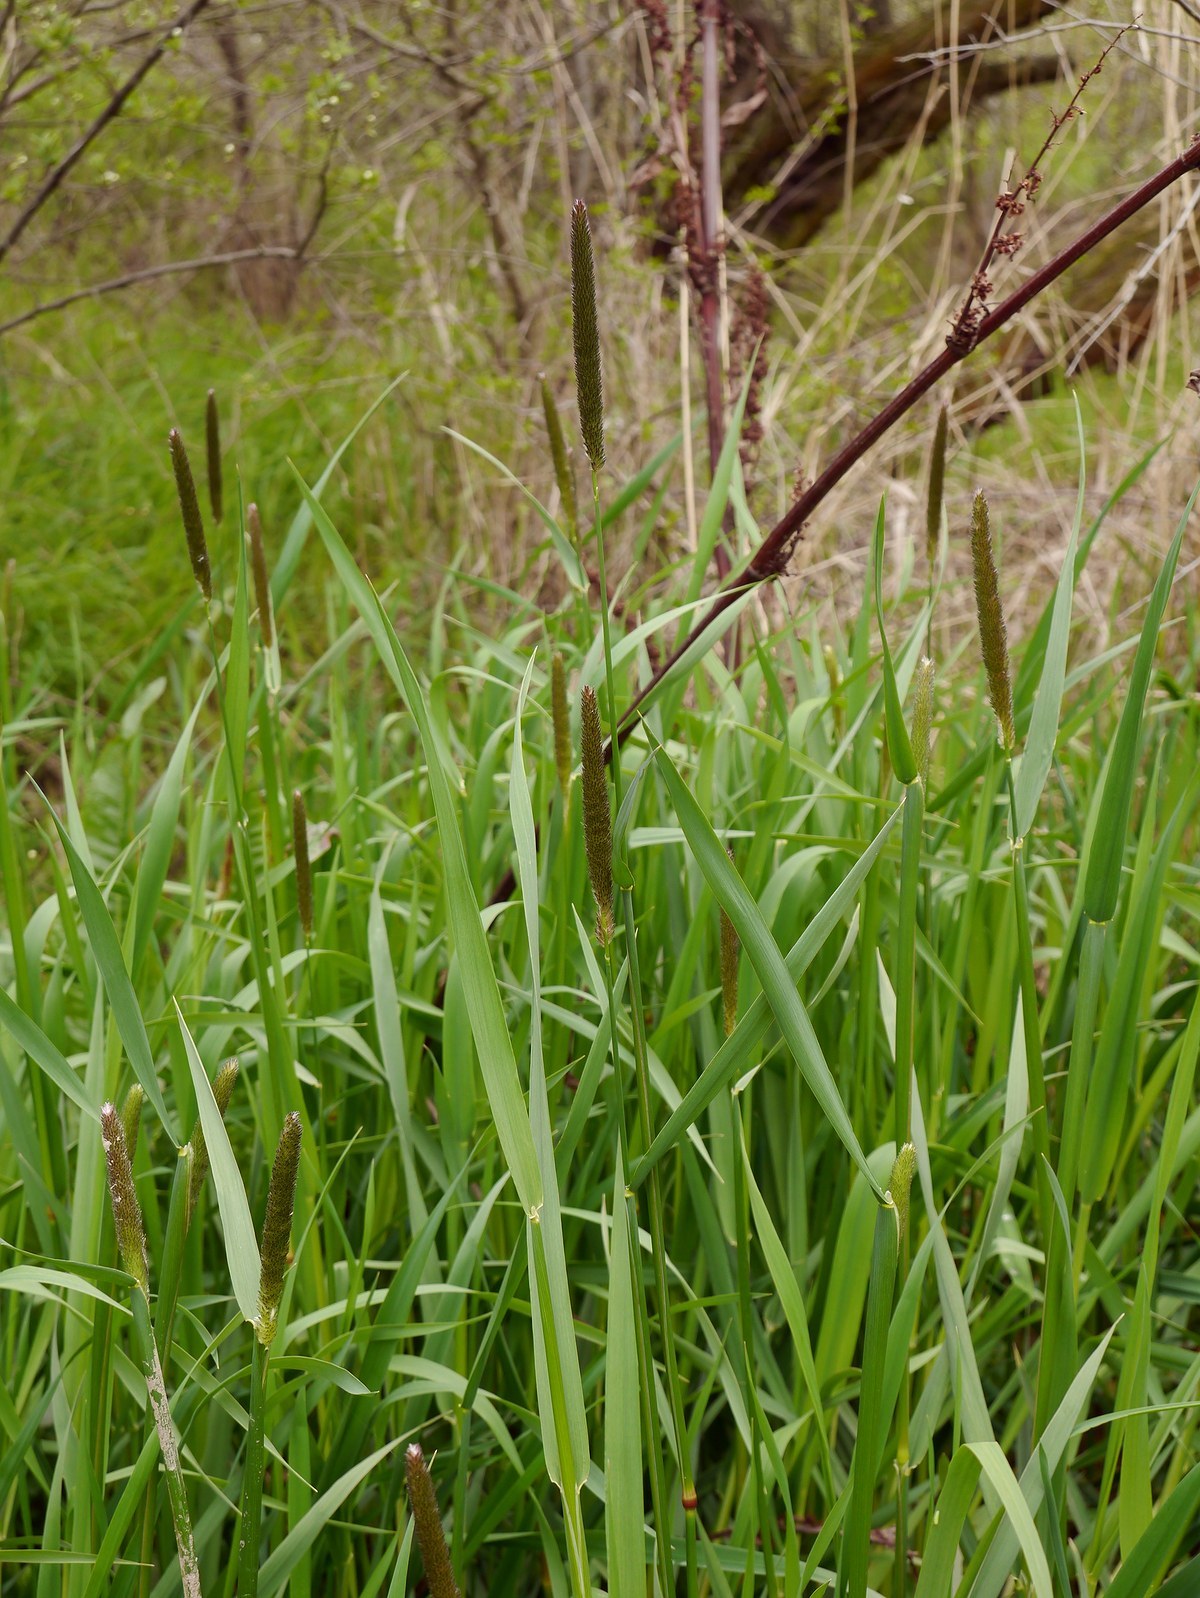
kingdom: Plantae
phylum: Tracheophyta
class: Liliopsida
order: Poales
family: Poaceae
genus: Alopecurus
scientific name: Alopecurus arundinaceus
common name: Creeping meadow foxtail
